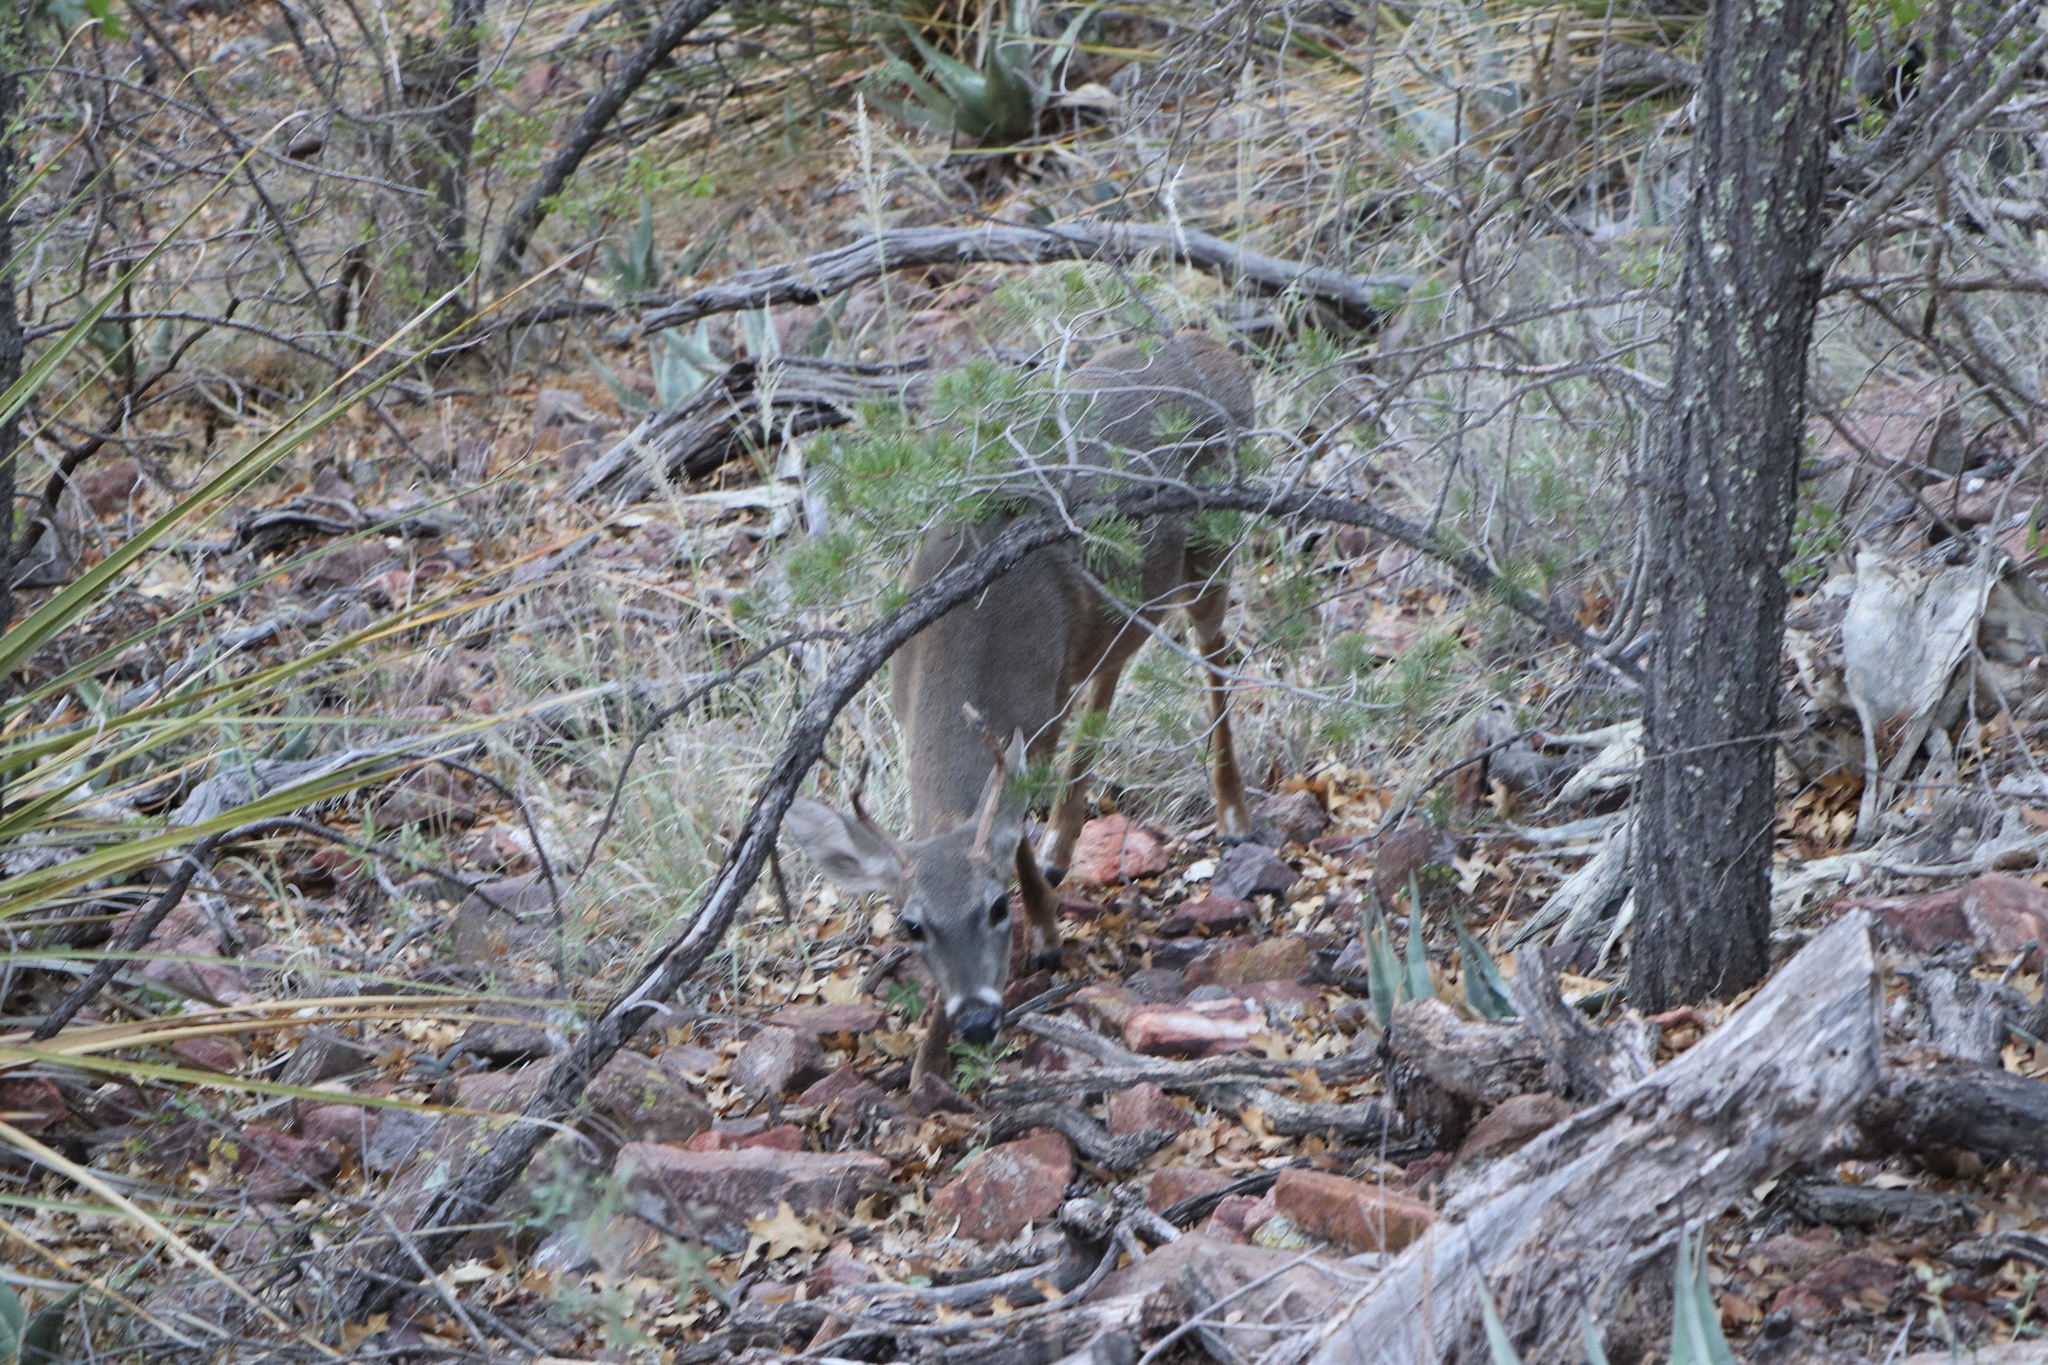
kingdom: Animalia
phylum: Chordata
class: Mammalia
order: Artiodactyla
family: Cervidae
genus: Odocoileus
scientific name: Odocoileus virginianus
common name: White-tailed deer
